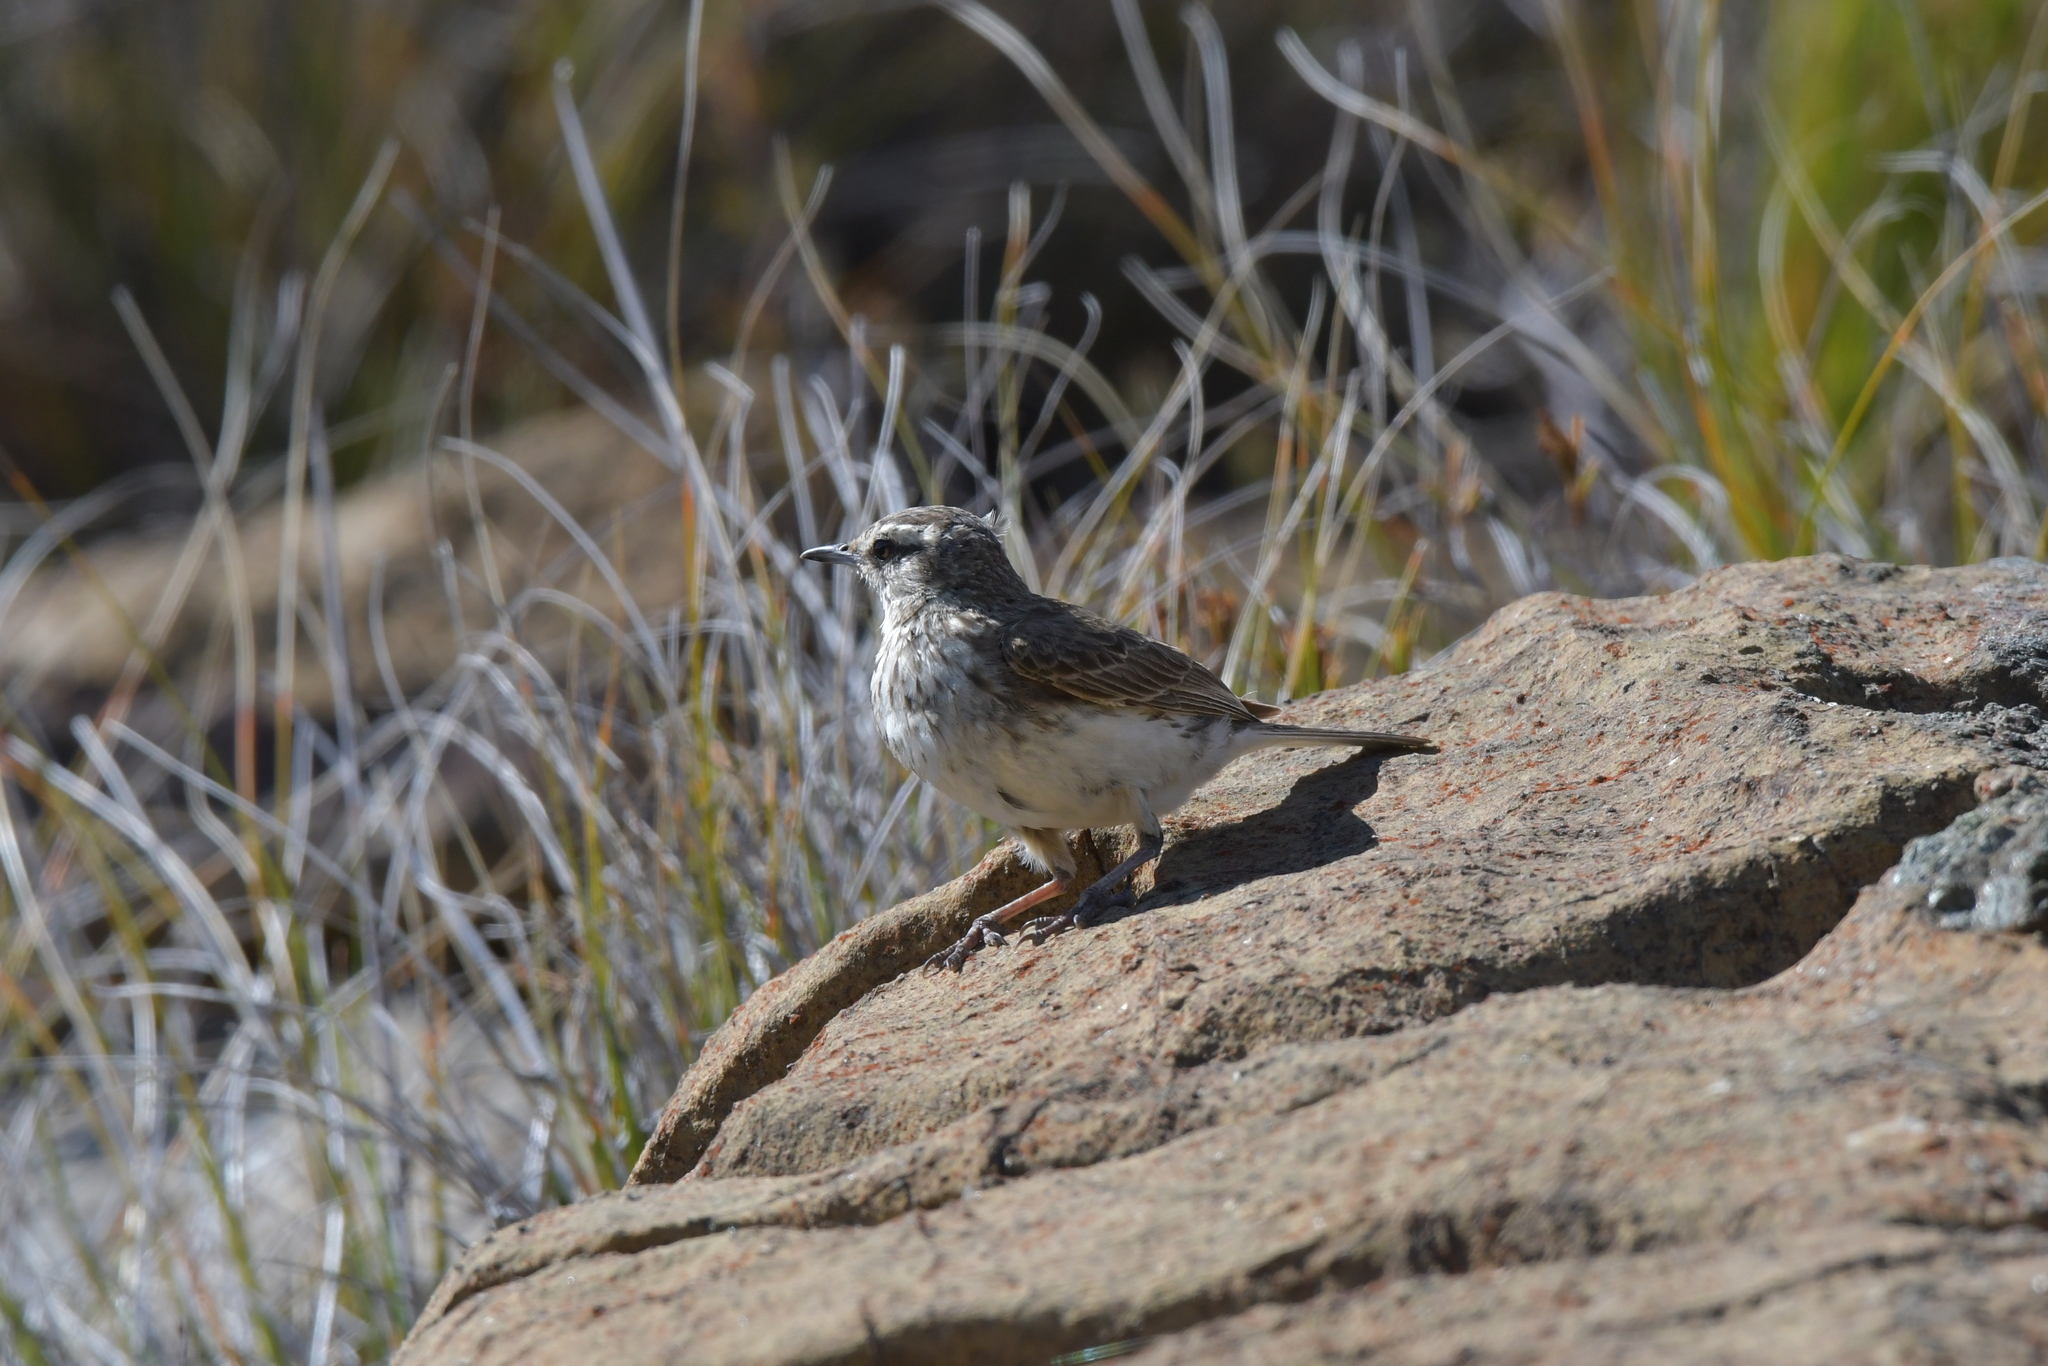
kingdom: Animalia
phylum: Chordata
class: Aves
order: Passeriformes
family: Motacillidae
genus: Anthus
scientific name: Anthus novaeseelandiae
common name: New zealand pipit
